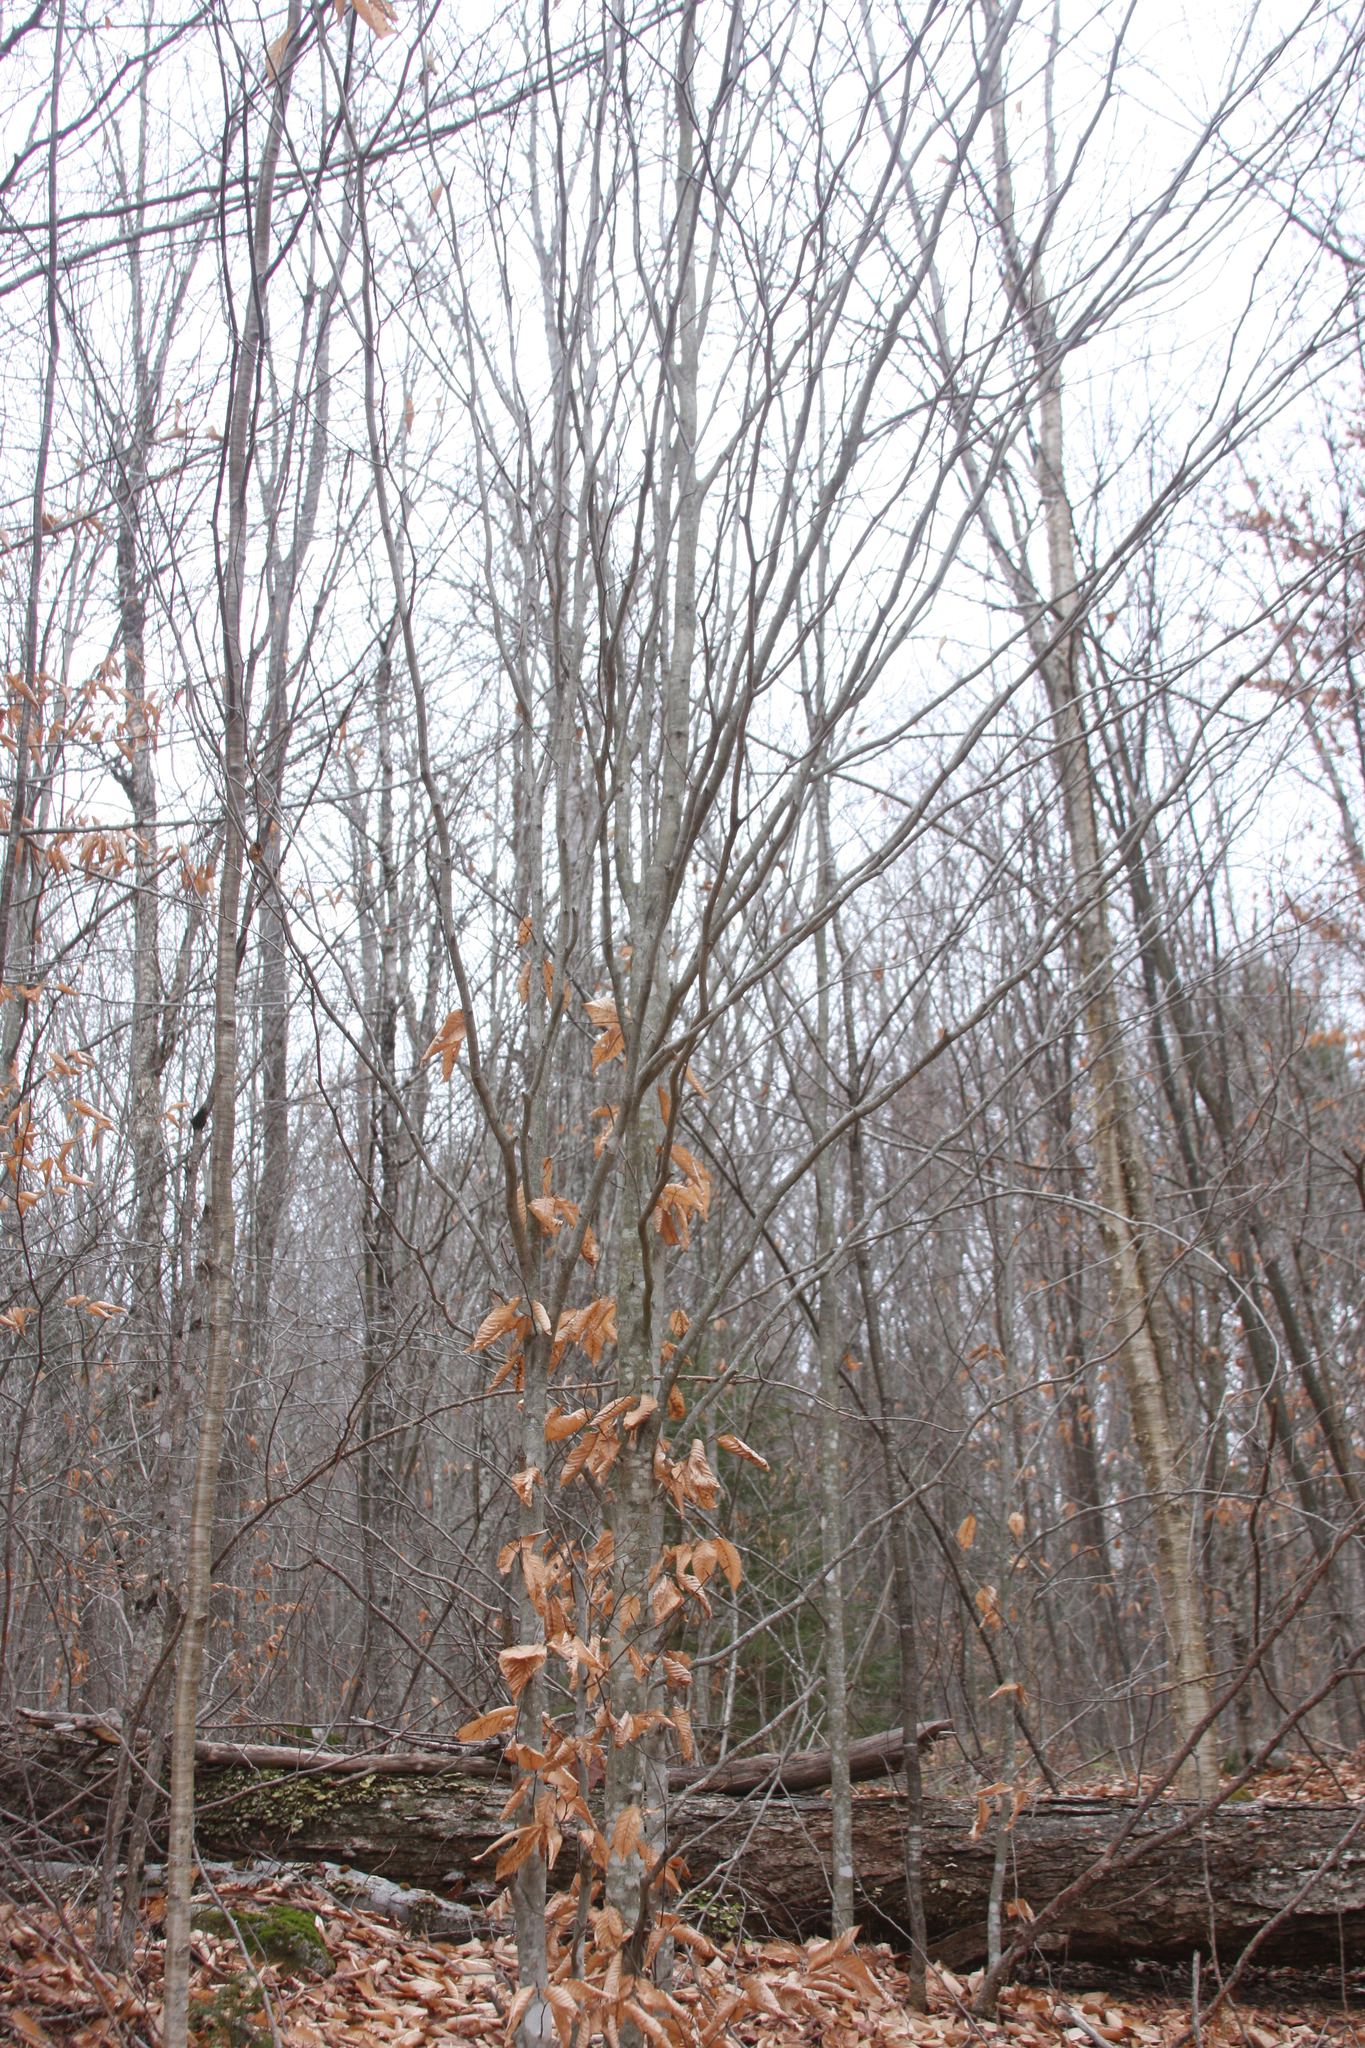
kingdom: Plantae
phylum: Tracheophyta
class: Magnoliopsida
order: Fagales
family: Fagaceae
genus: Fagus
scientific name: Fagus grandifolia
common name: American beech
